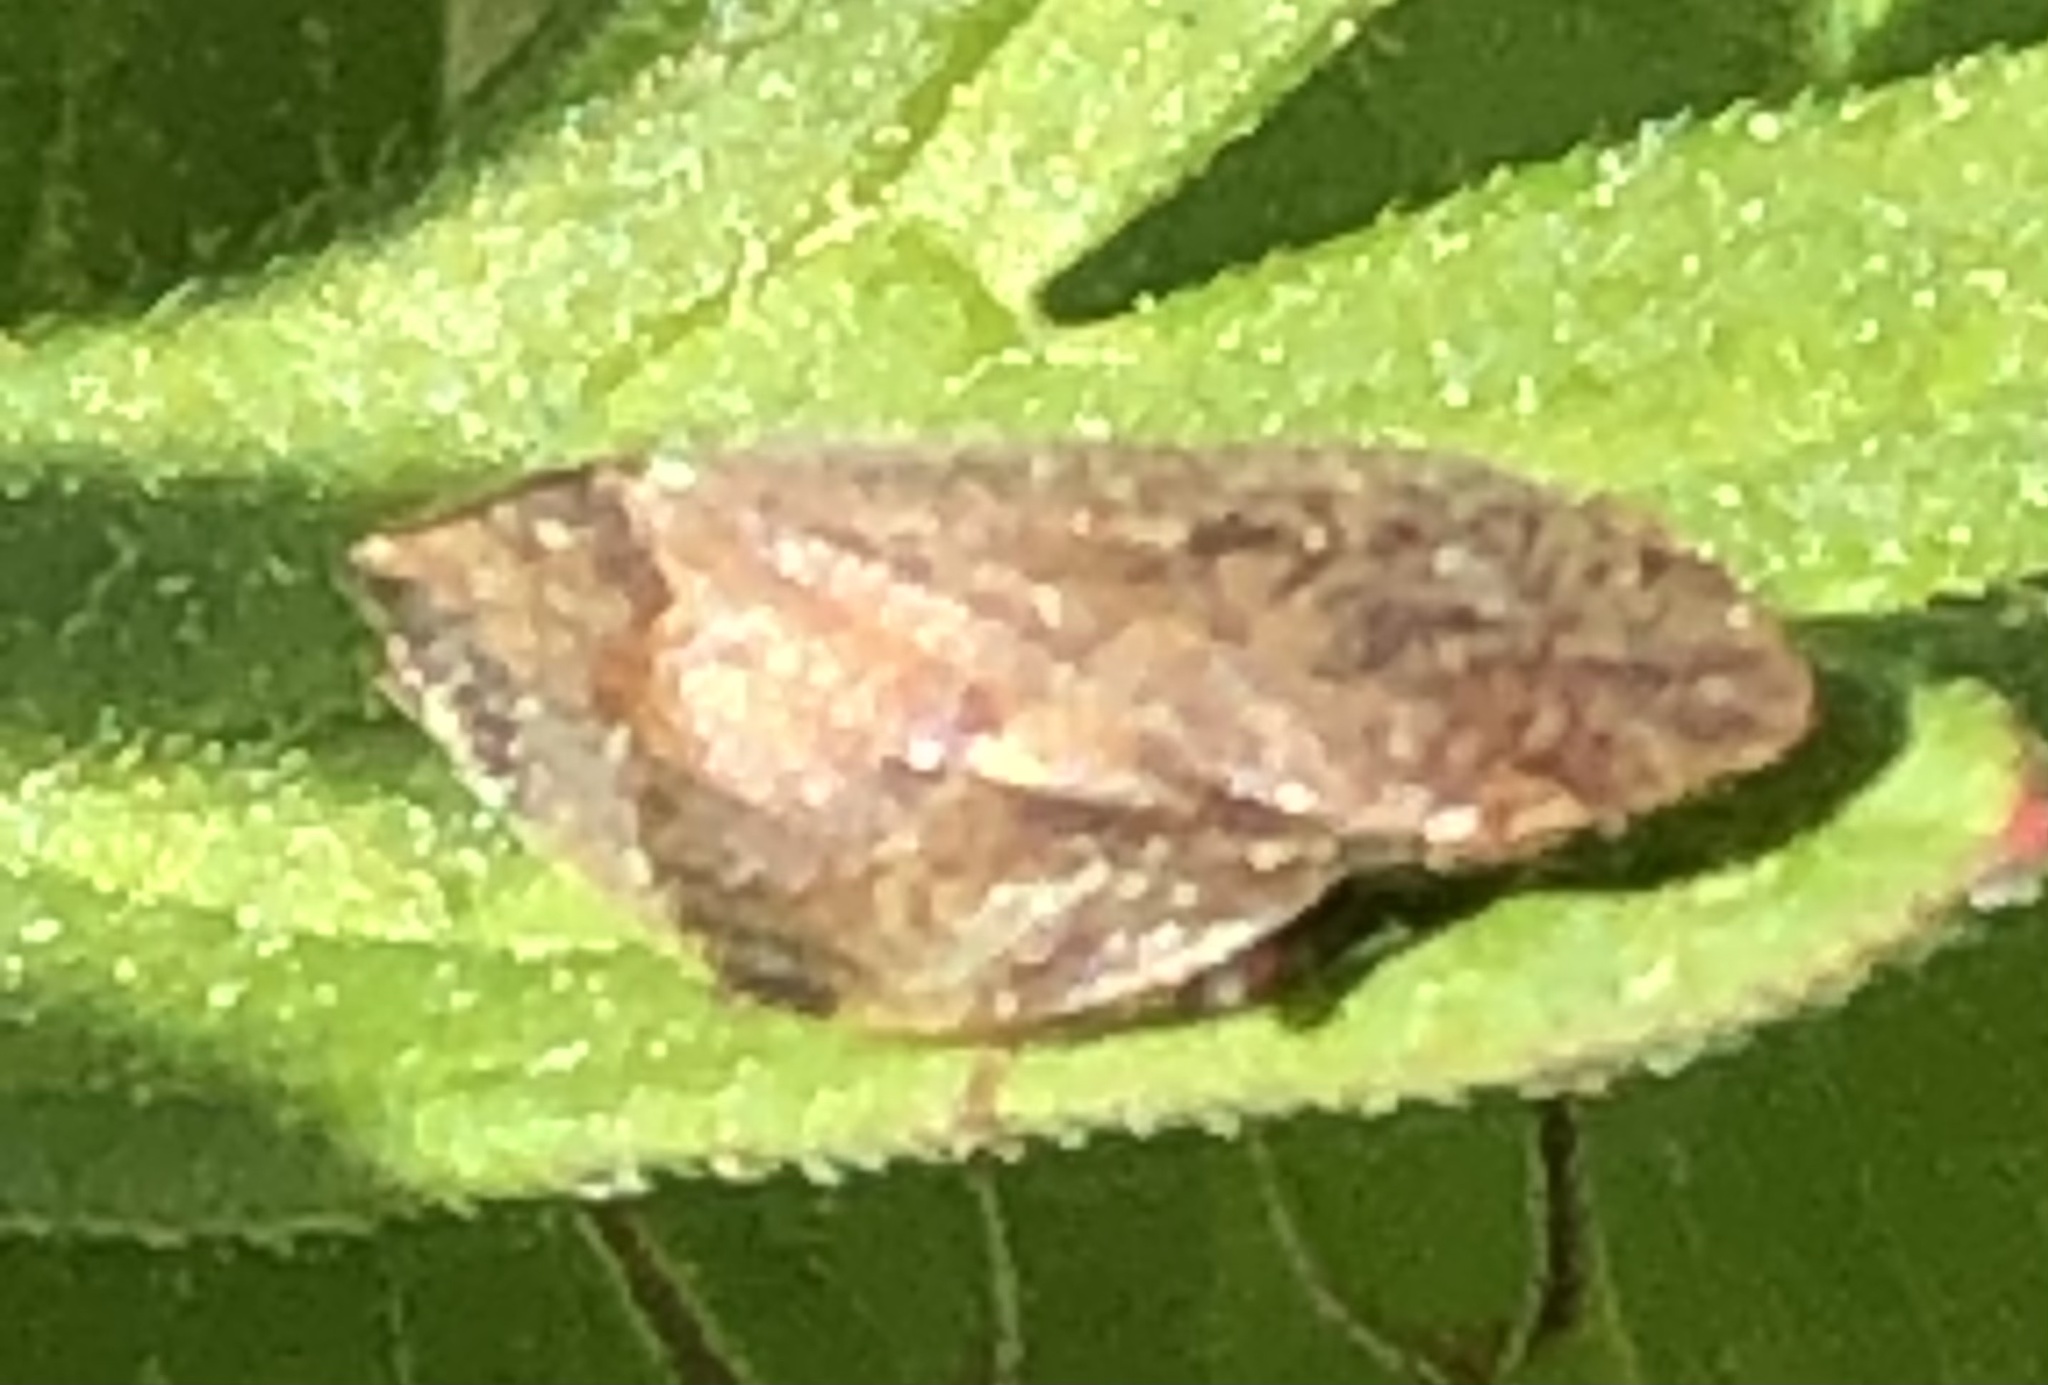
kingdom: Animalia
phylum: Arthropoda
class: Insecta
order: Hemiptera
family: Aphrophoridae
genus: Lepyronia
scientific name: Lepyronia quadrangularis
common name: Diamond-backed spittlebug
